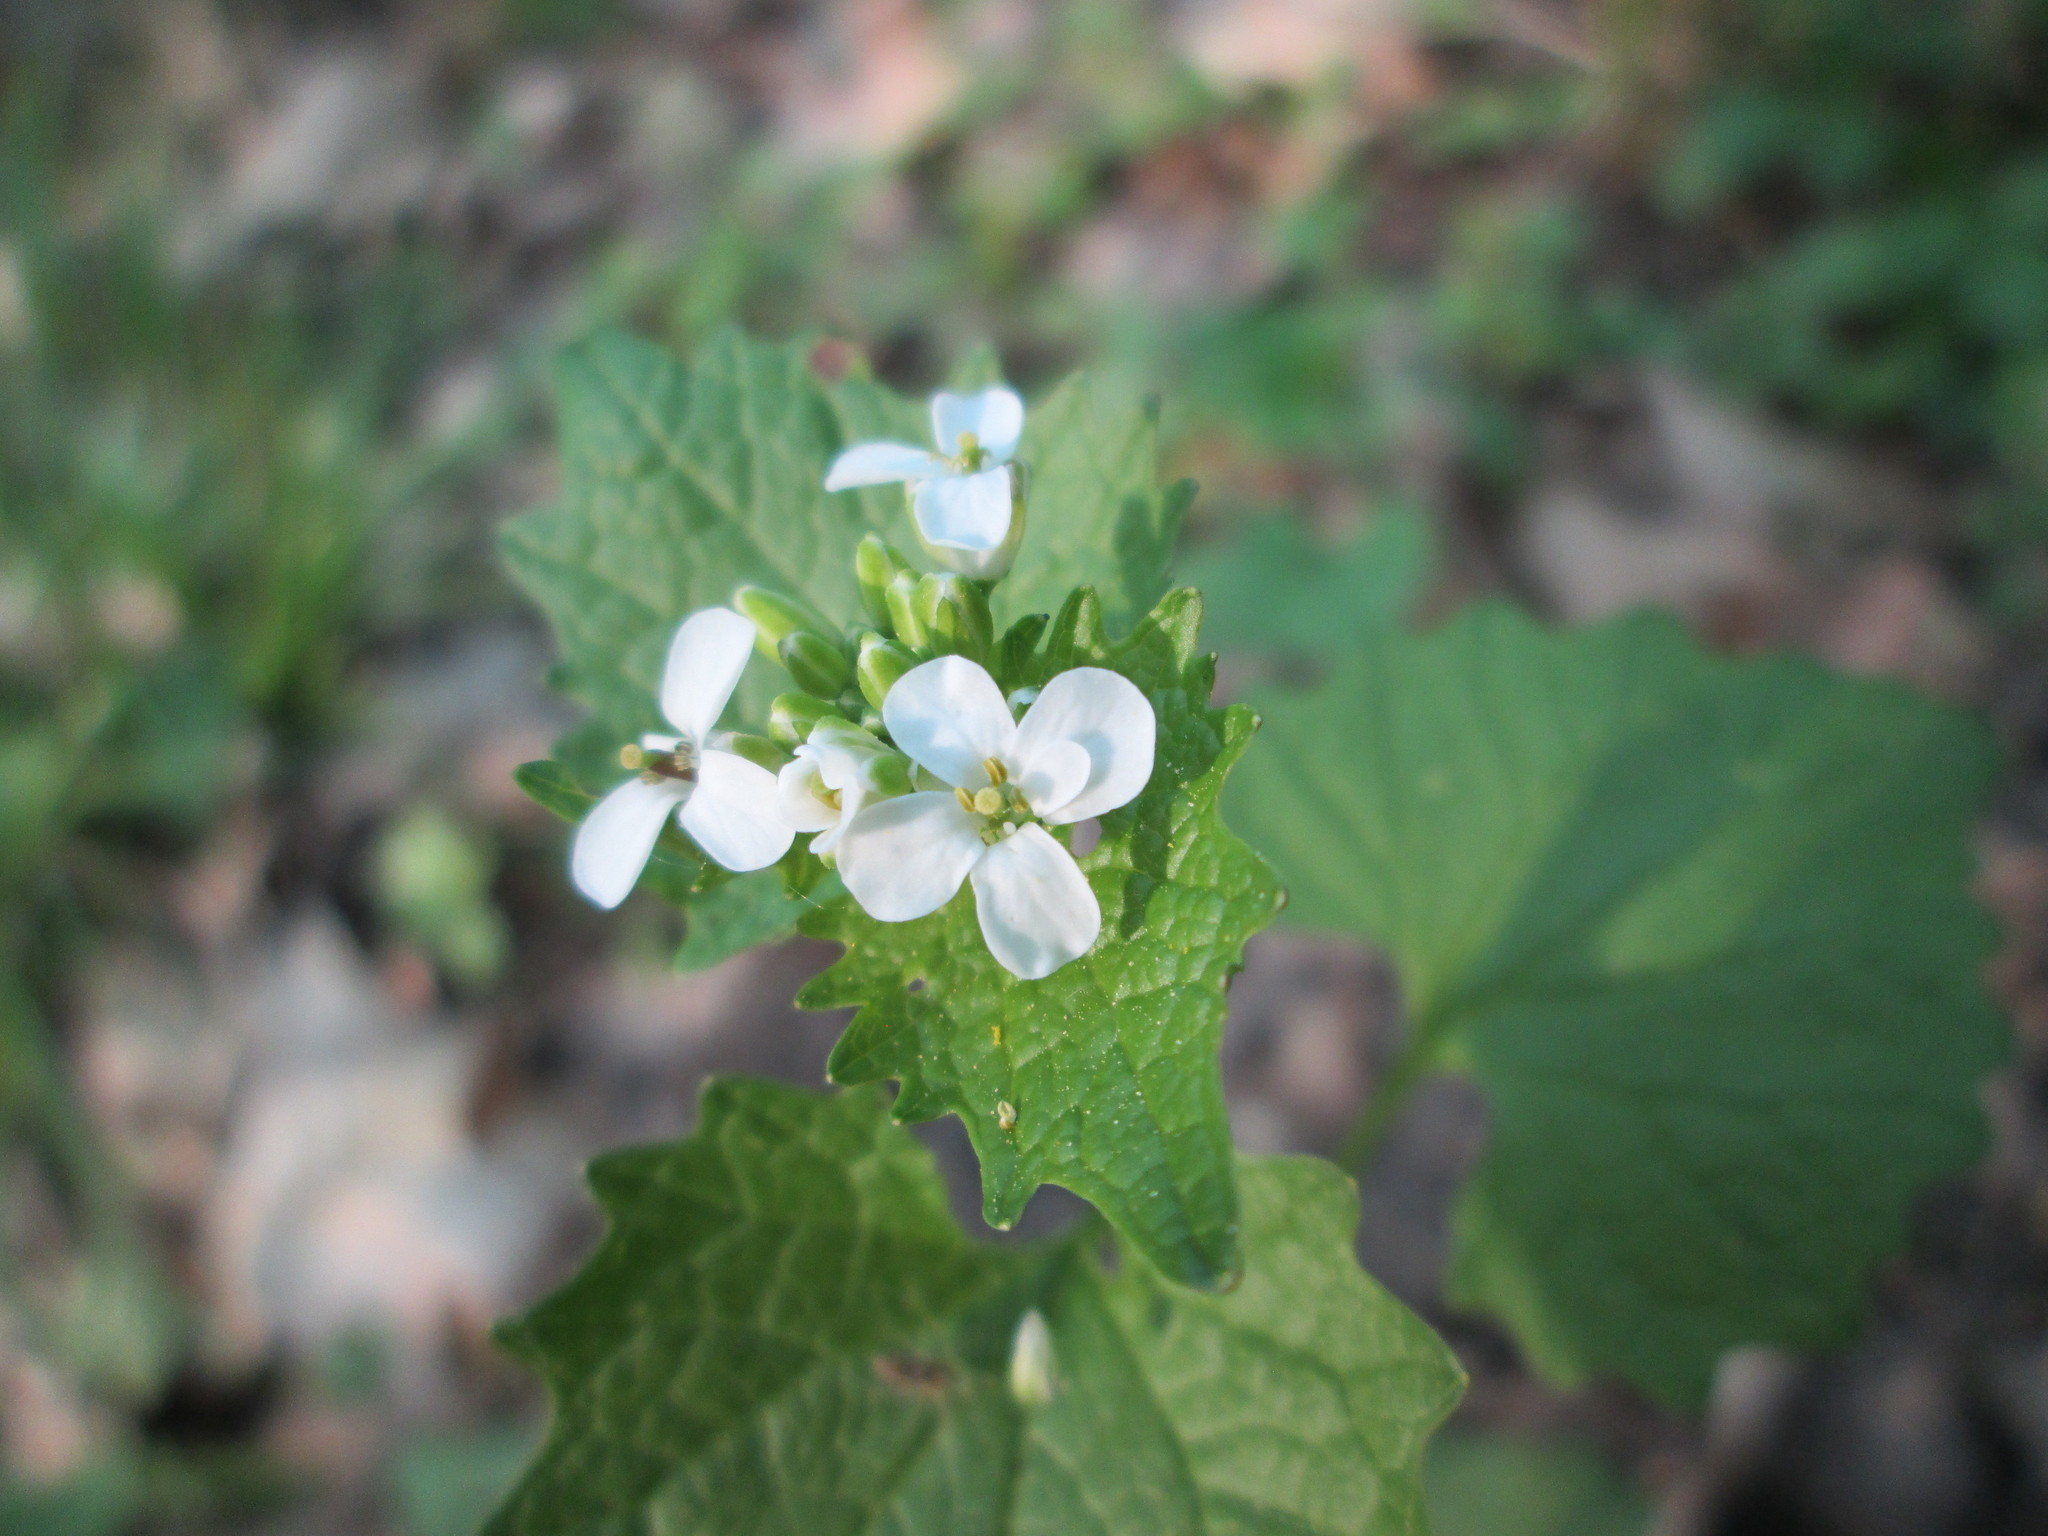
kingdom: Plantae
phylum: Tracheophyta
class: Magnoliopsida
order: Brassicales
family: Brassicaceae
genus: Alliaria
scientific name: Alliaria petiolata
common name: Garlic mustard
